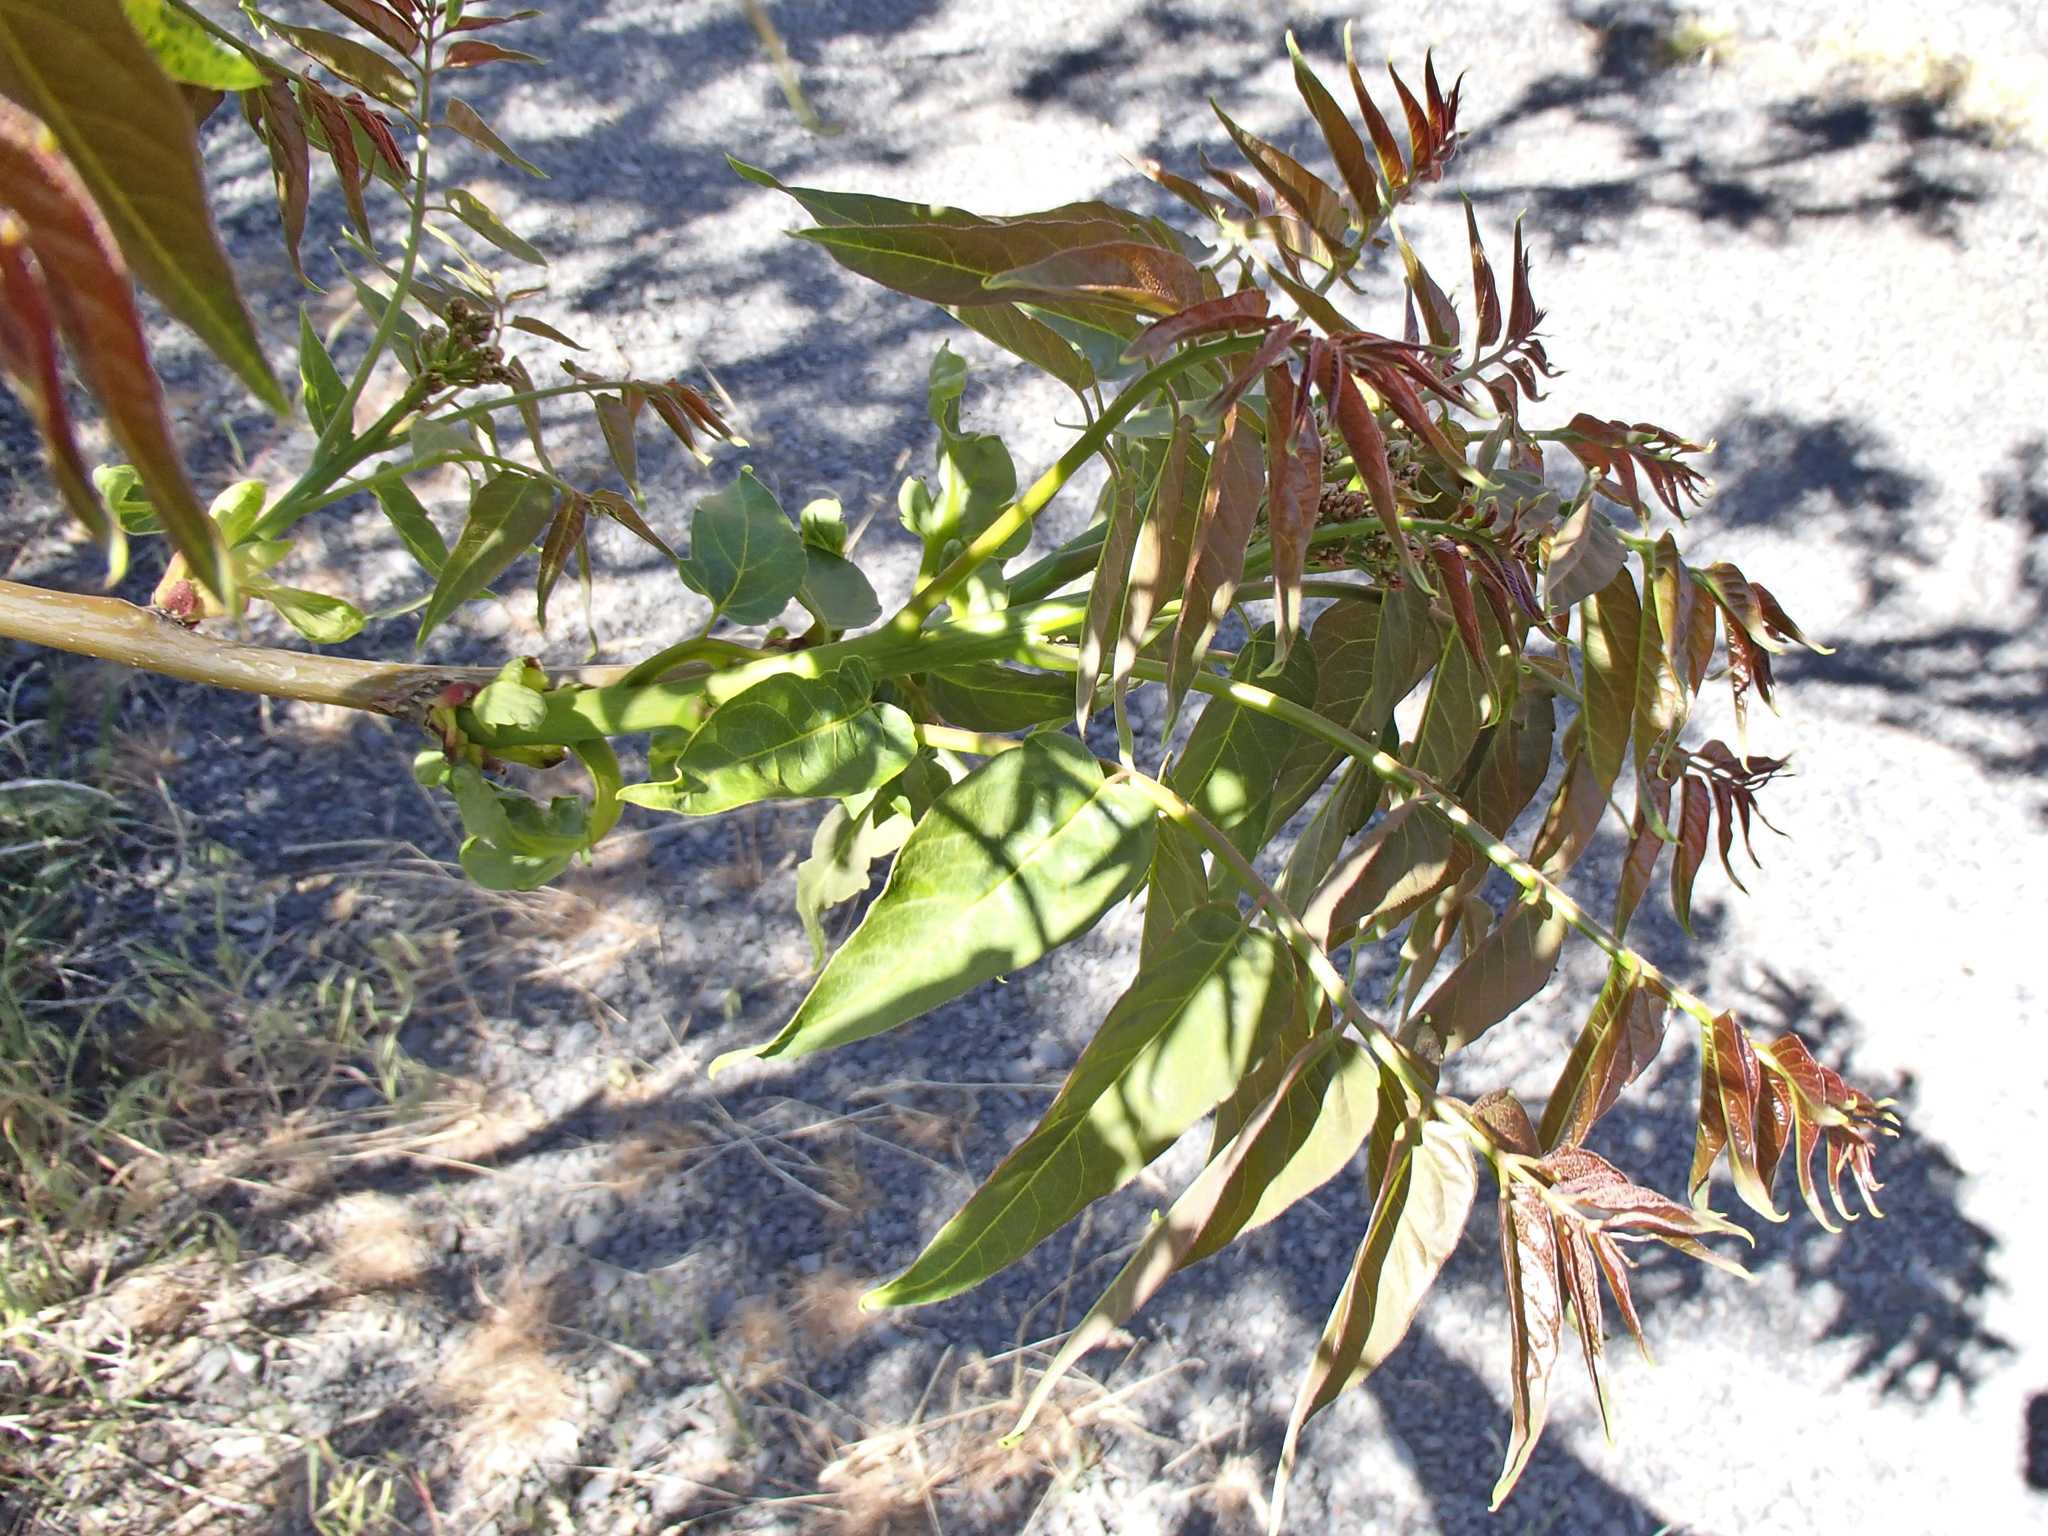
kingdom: Plantae
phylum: Tracheophyta
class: Magnoliopsida
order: Sapindales
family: Simaroubaceae
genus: Ailanthus
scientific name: Ailanthus altissima
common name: Tree-of-heaven
